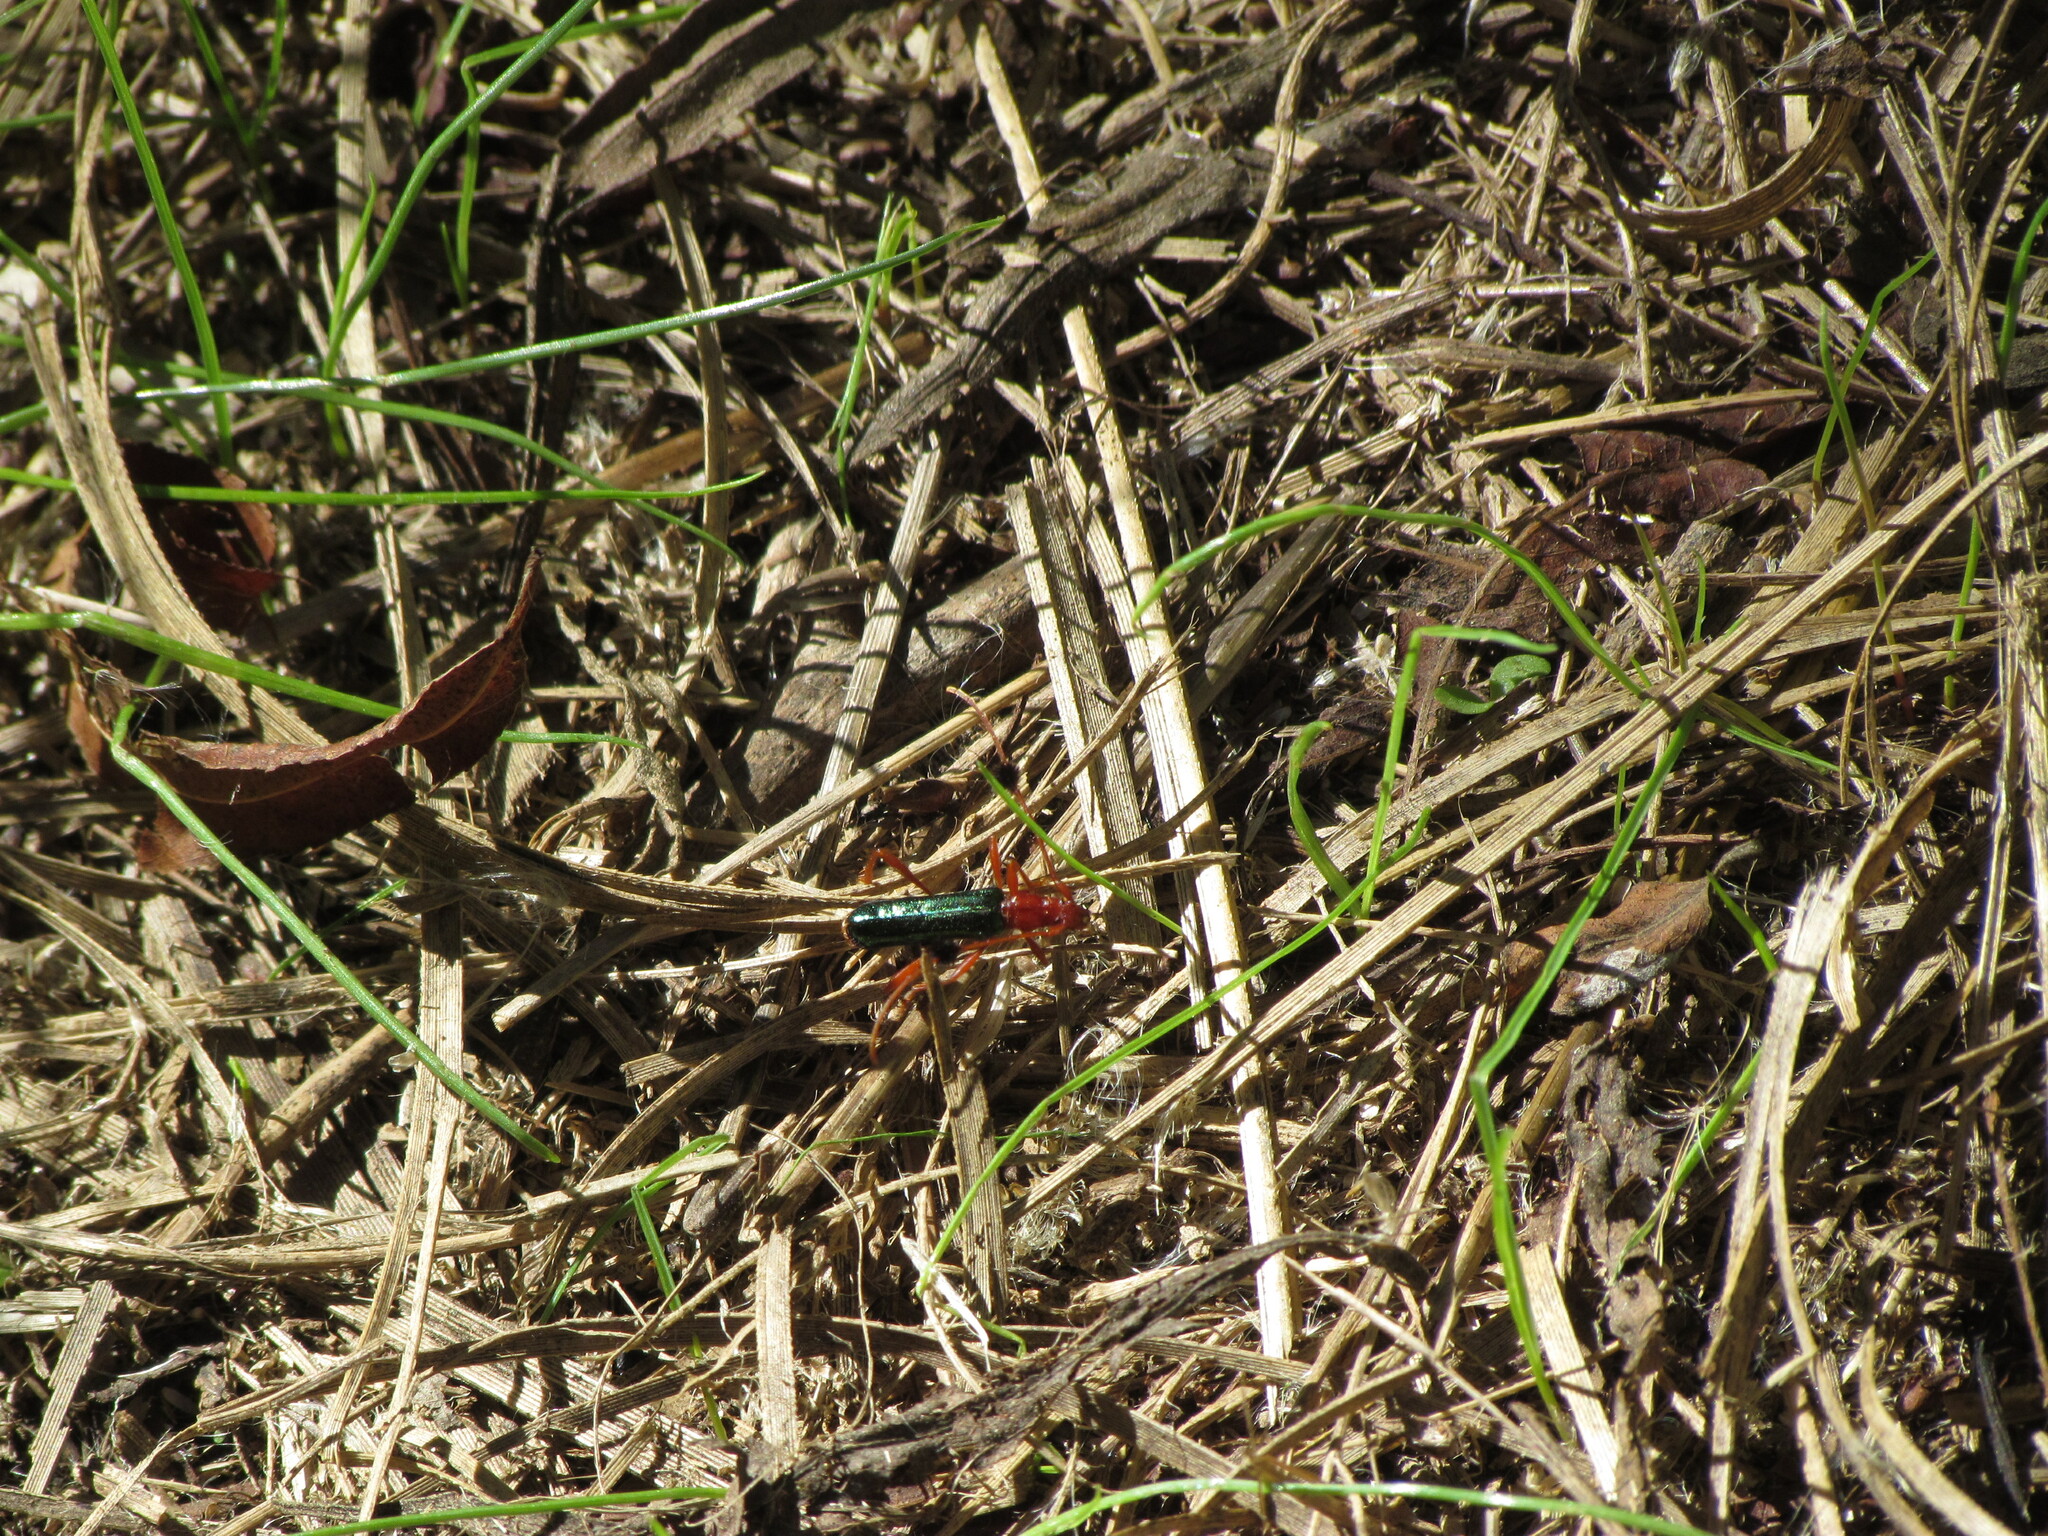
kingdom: Animalia
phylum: Arthropoda
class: Insecta
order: Coleoptera
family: Cerambycidae
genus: Paromoeocerus
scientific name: Paromoeocerus barbicornis
